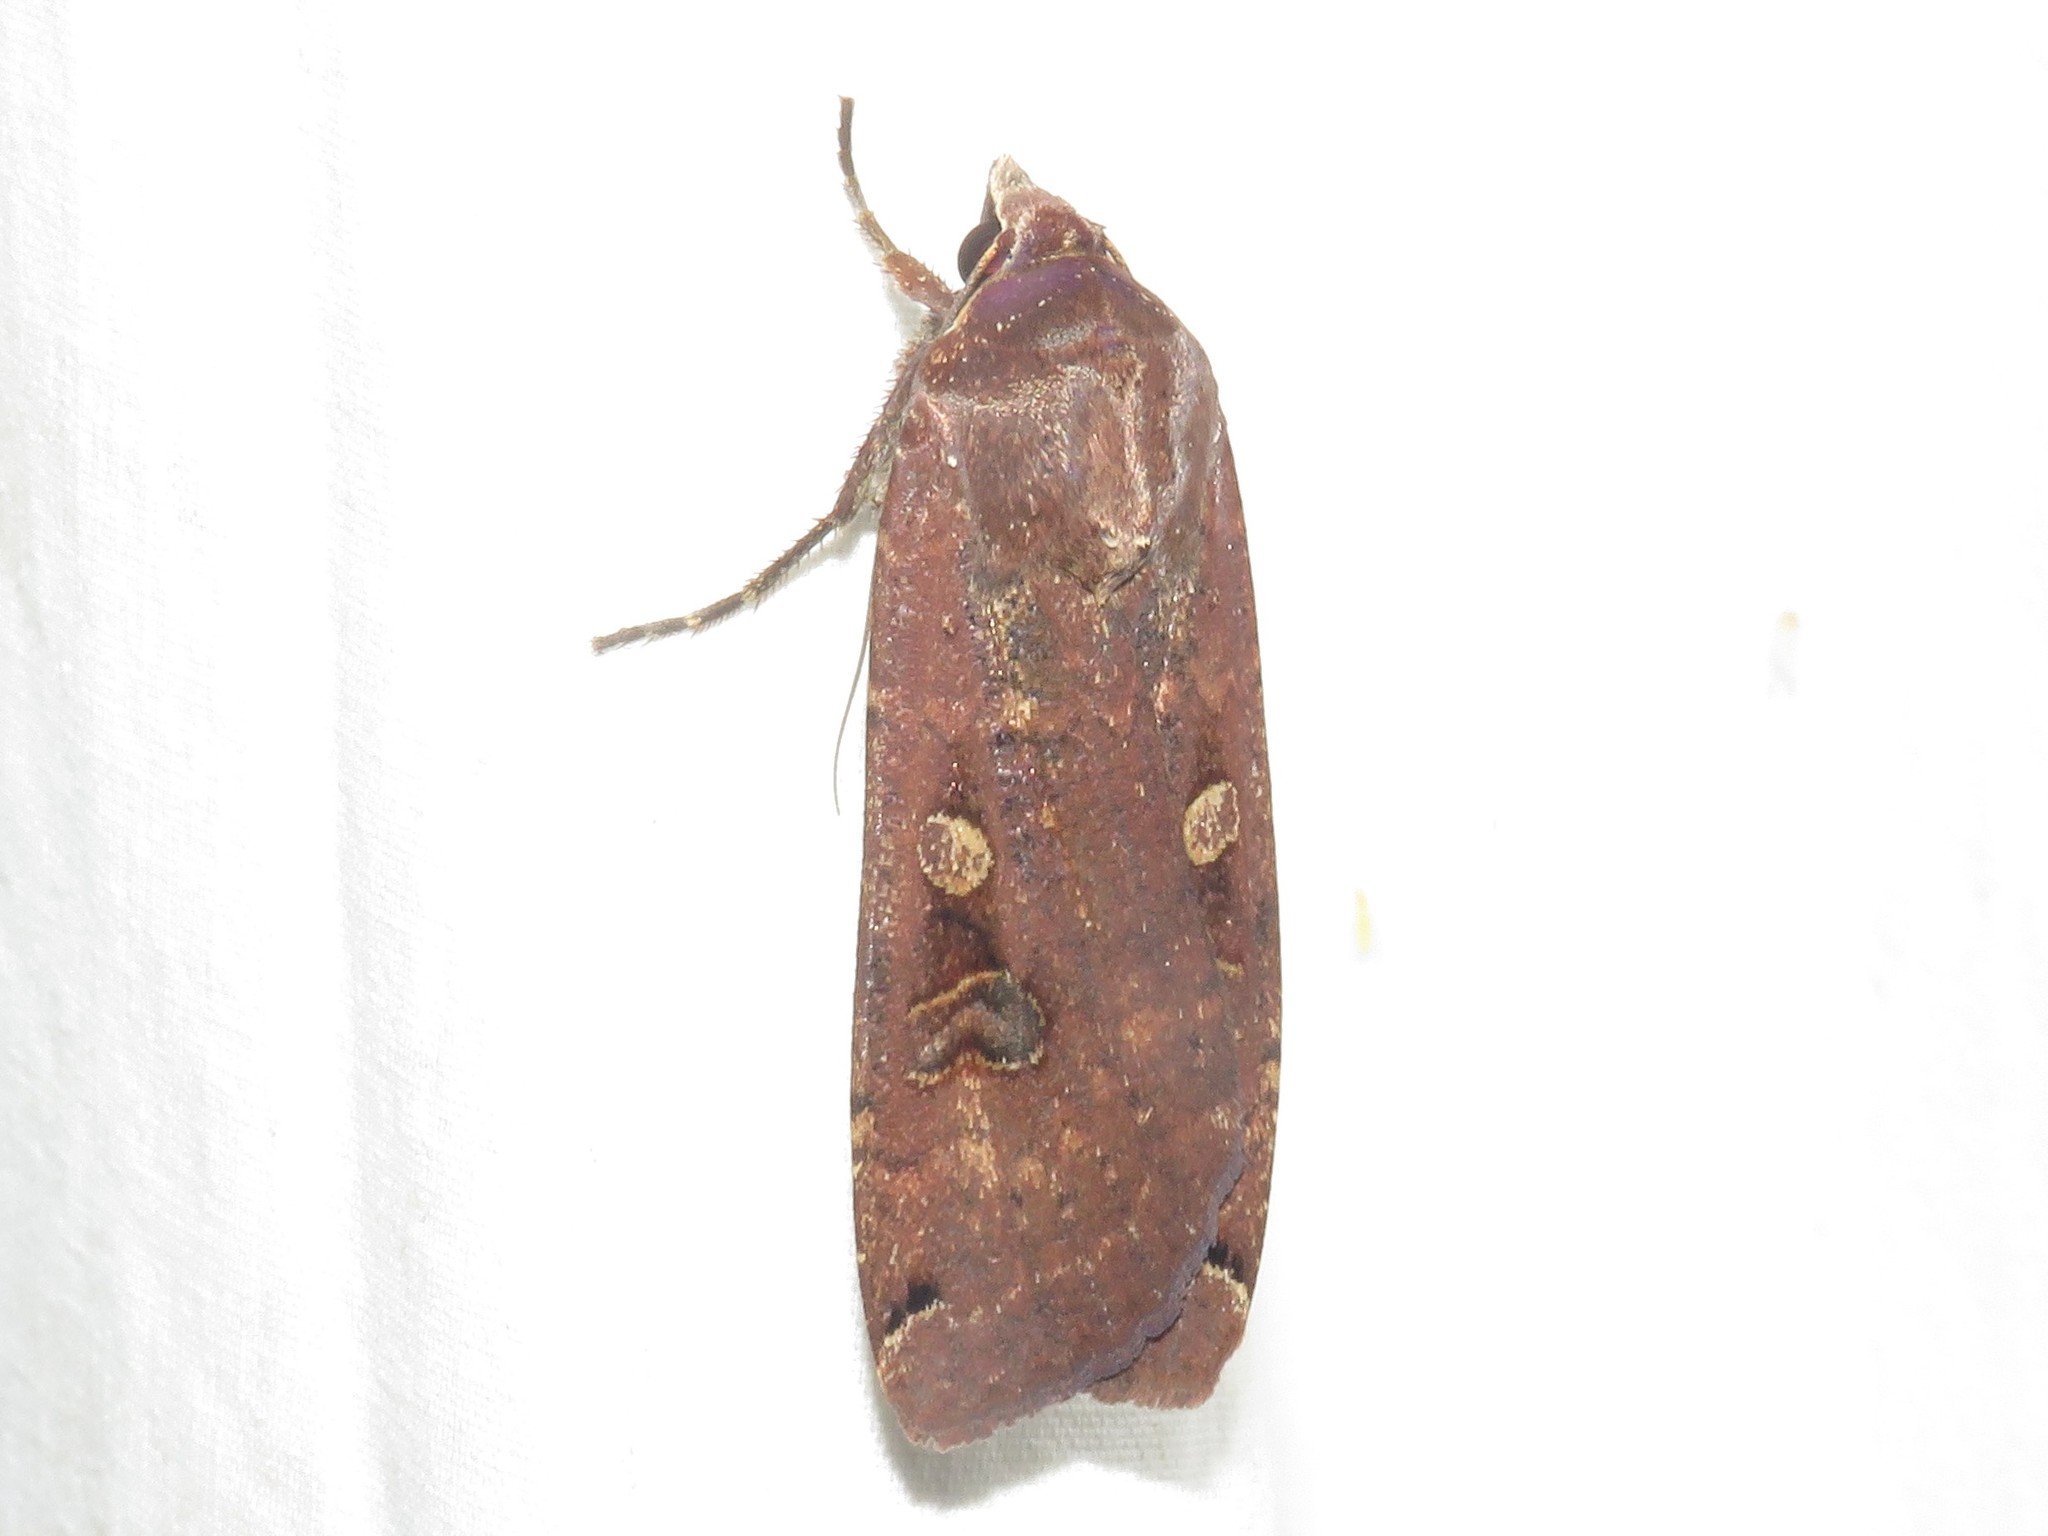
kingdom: Animalia
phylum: Arthropoda
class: Insecta
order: Lepidoptera
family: Noctuidae
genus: Noctua
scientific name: Noctua pronuba
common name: Large yellow underwing
